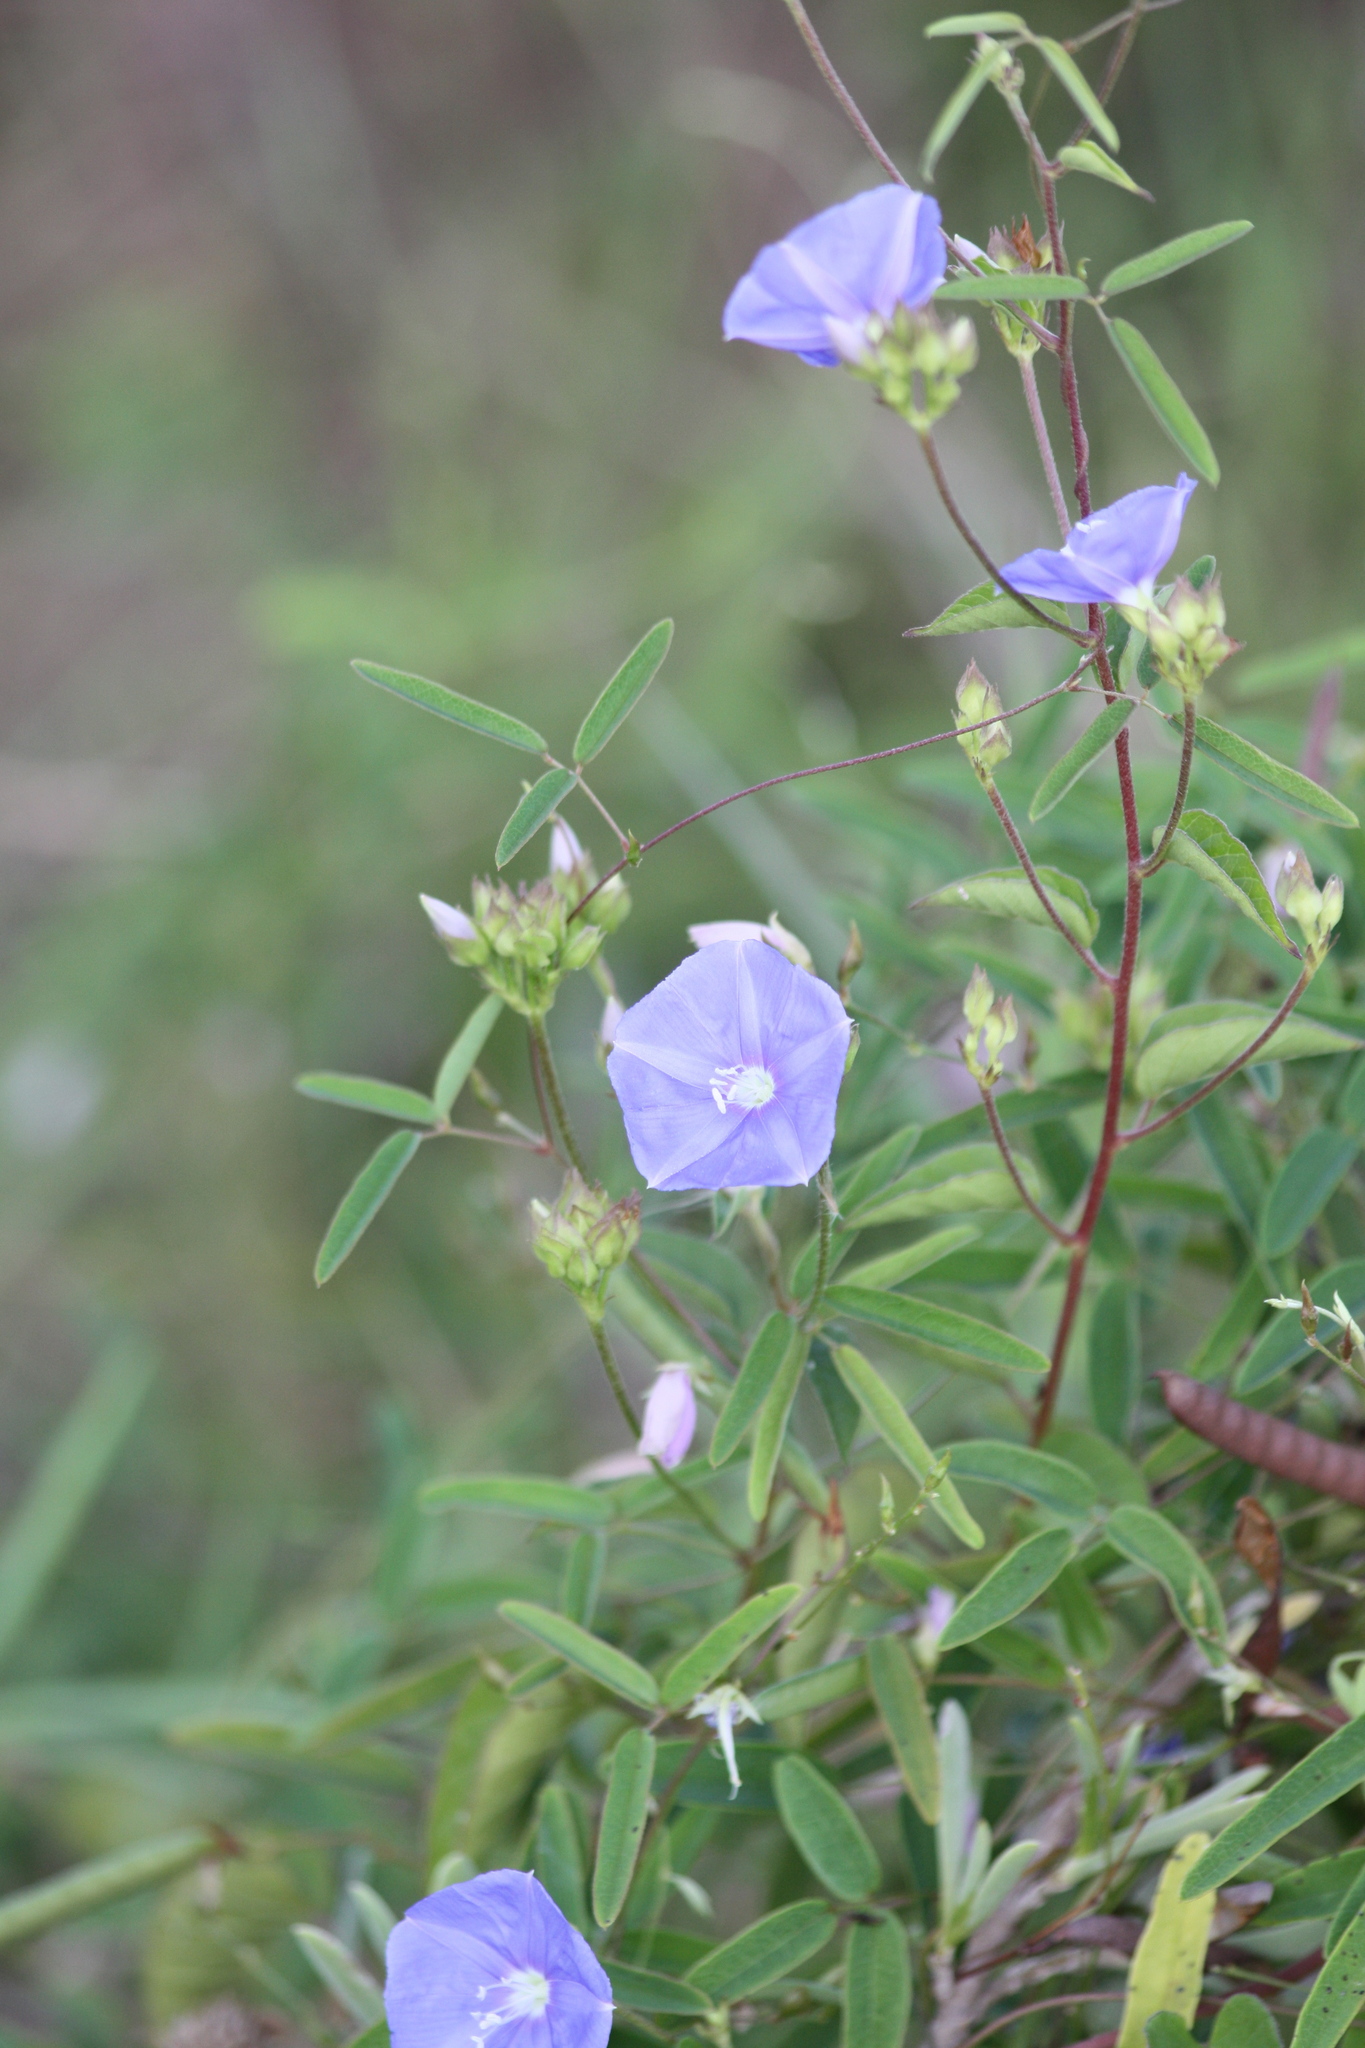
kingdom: Plantae
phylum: Tracheophyta
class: Magnoliopsida
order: Solanales
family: Convolvulaceae
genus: Jacquemontia
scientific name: Jacquemontia pentanthos
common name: Skyblue clustervine
